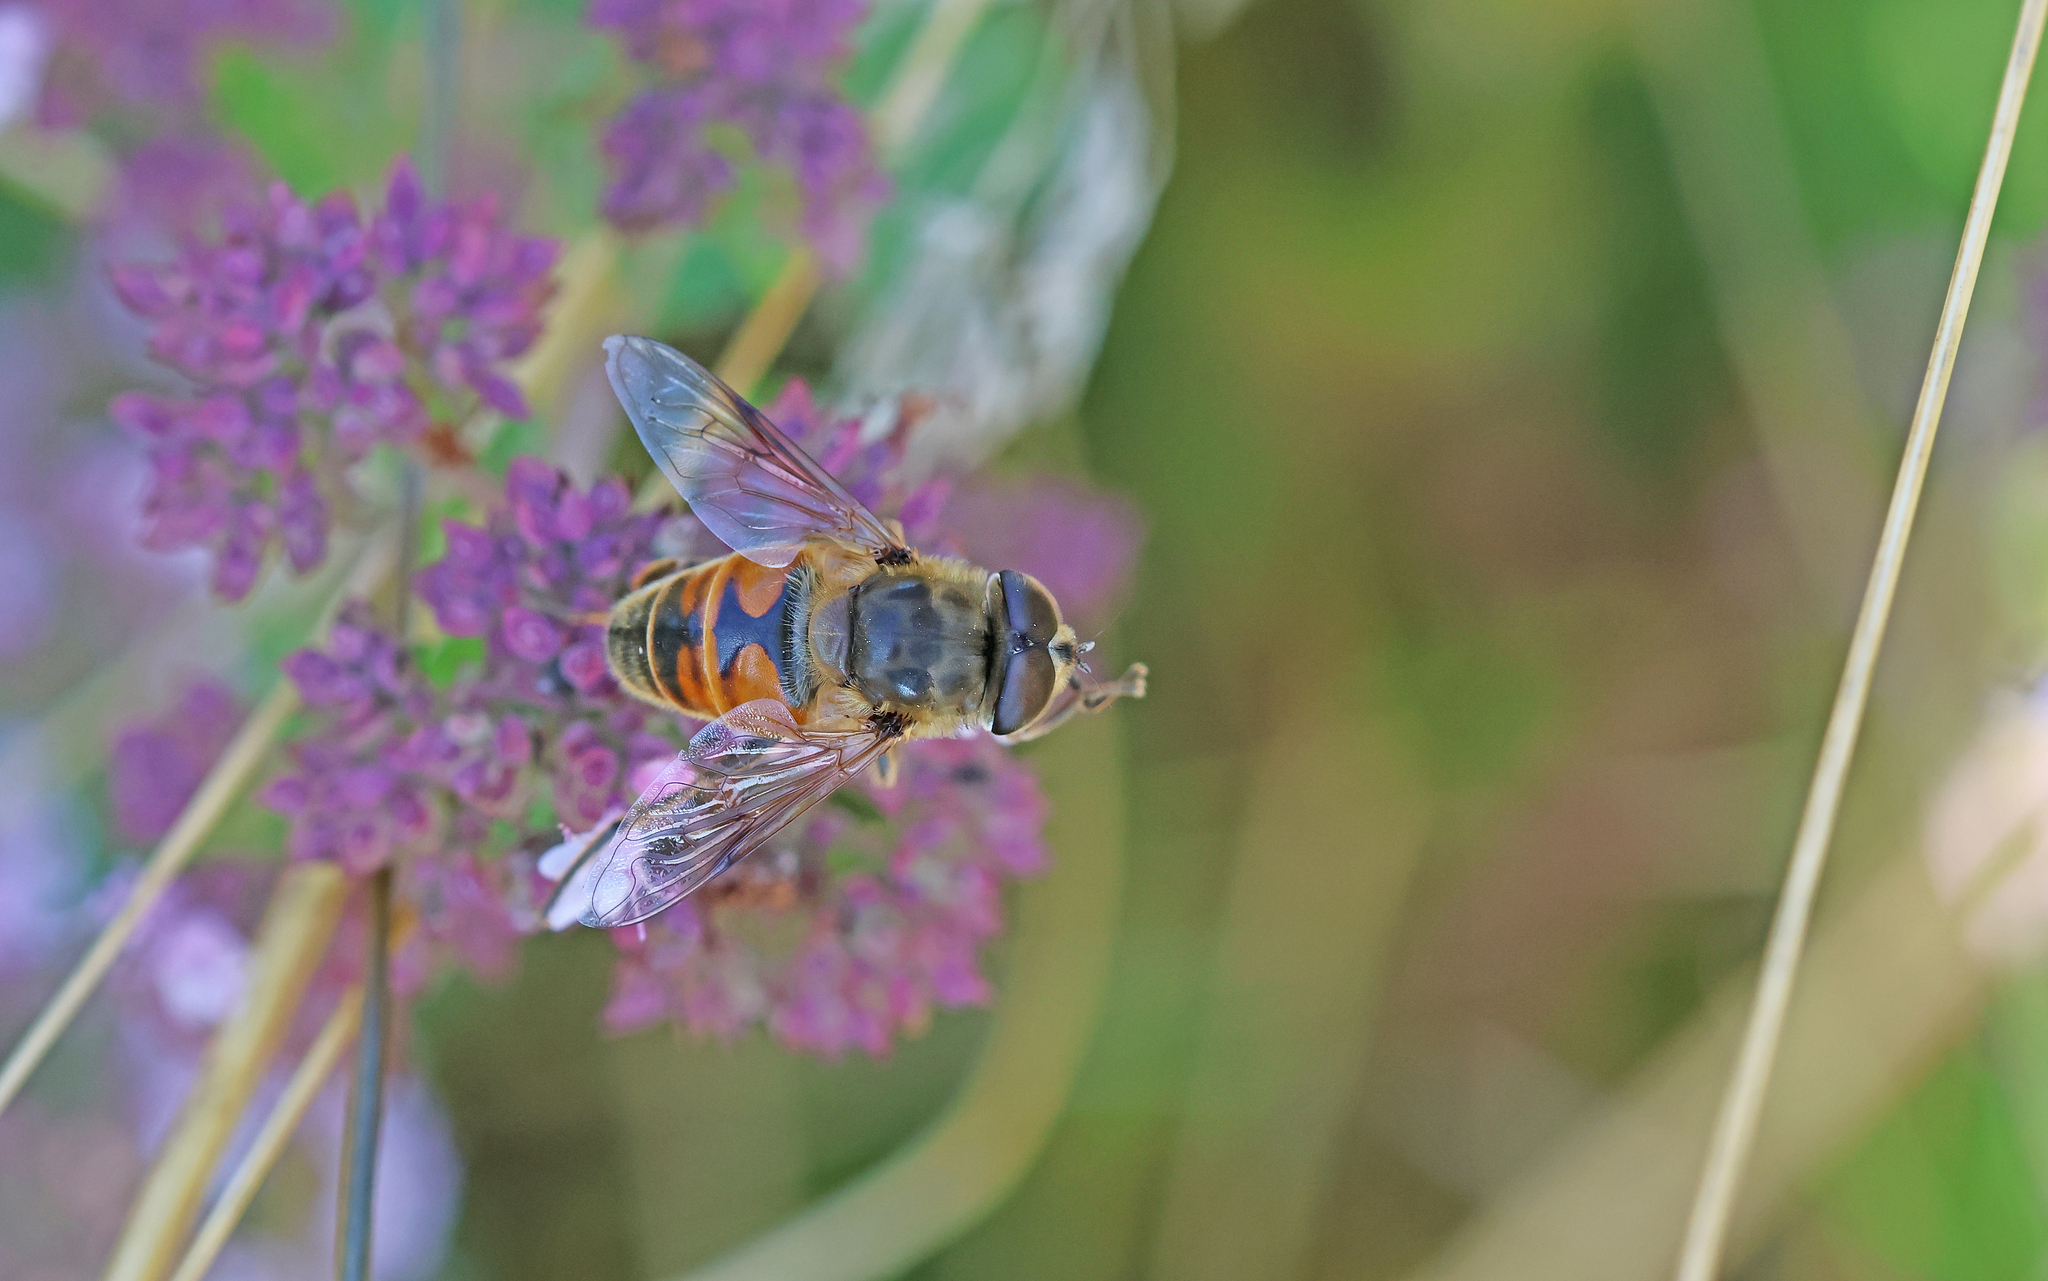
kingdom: Animalia
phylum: Arthropoda
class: Insecta
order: Diptera
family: Syrphidae
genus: Eristalis
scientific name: Eristalis tenax
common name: Drone fly
